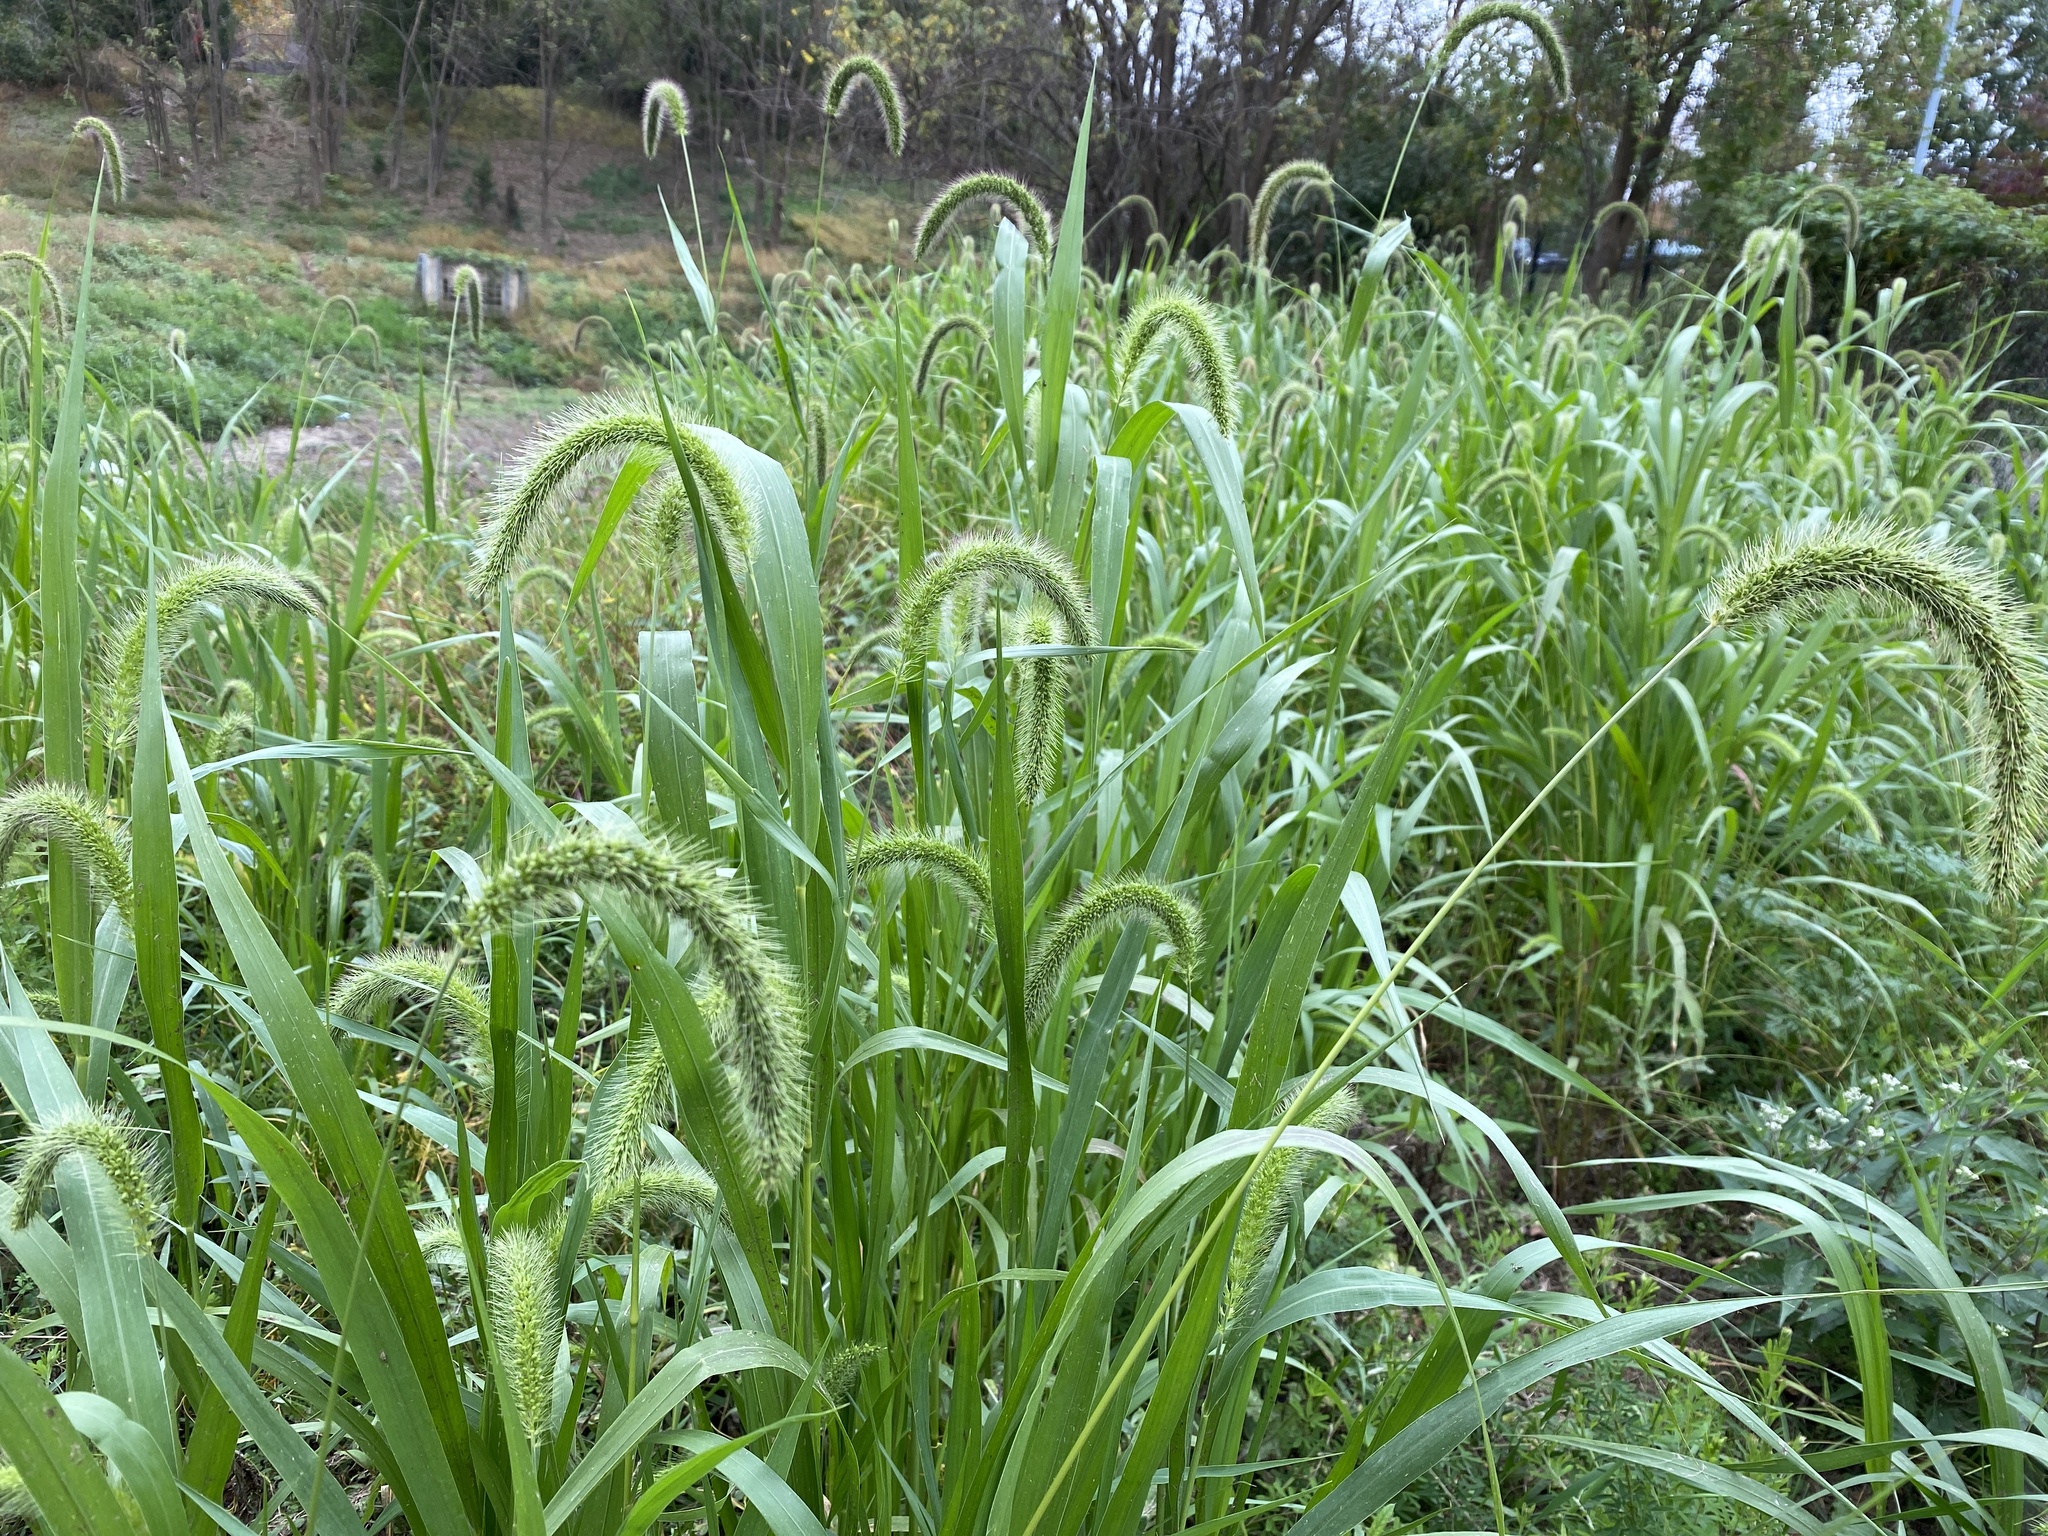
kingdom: Plantae
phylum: Tracheophyta
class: Liliopsida
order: Poales
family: Poaceae
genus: Setaria
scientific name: Setaria faberi
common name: Nodding bristle-grass
